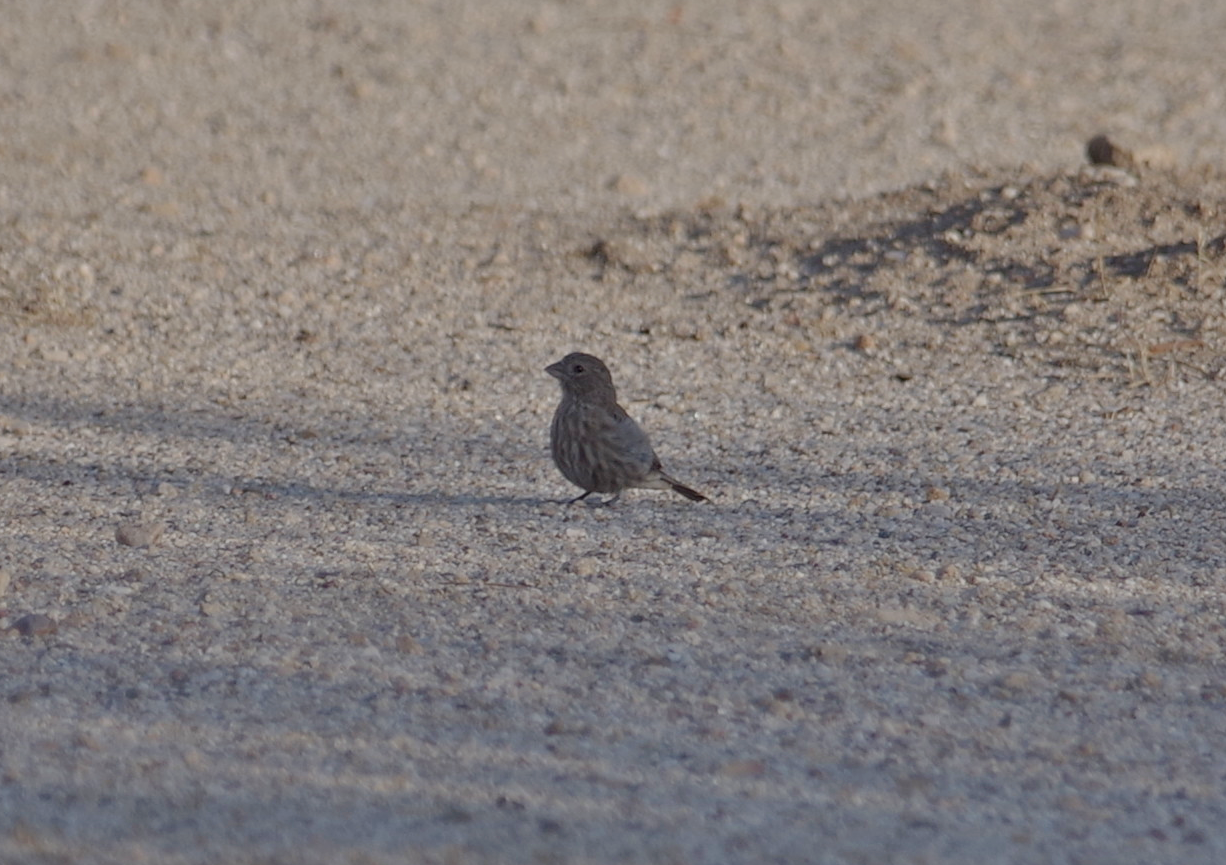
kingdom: Animalia
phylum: Chordata
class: Aves
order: Passeriformes
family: Fringillidae
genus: Haemorhous
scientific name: Haemorhous mexicanus
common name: House finch
